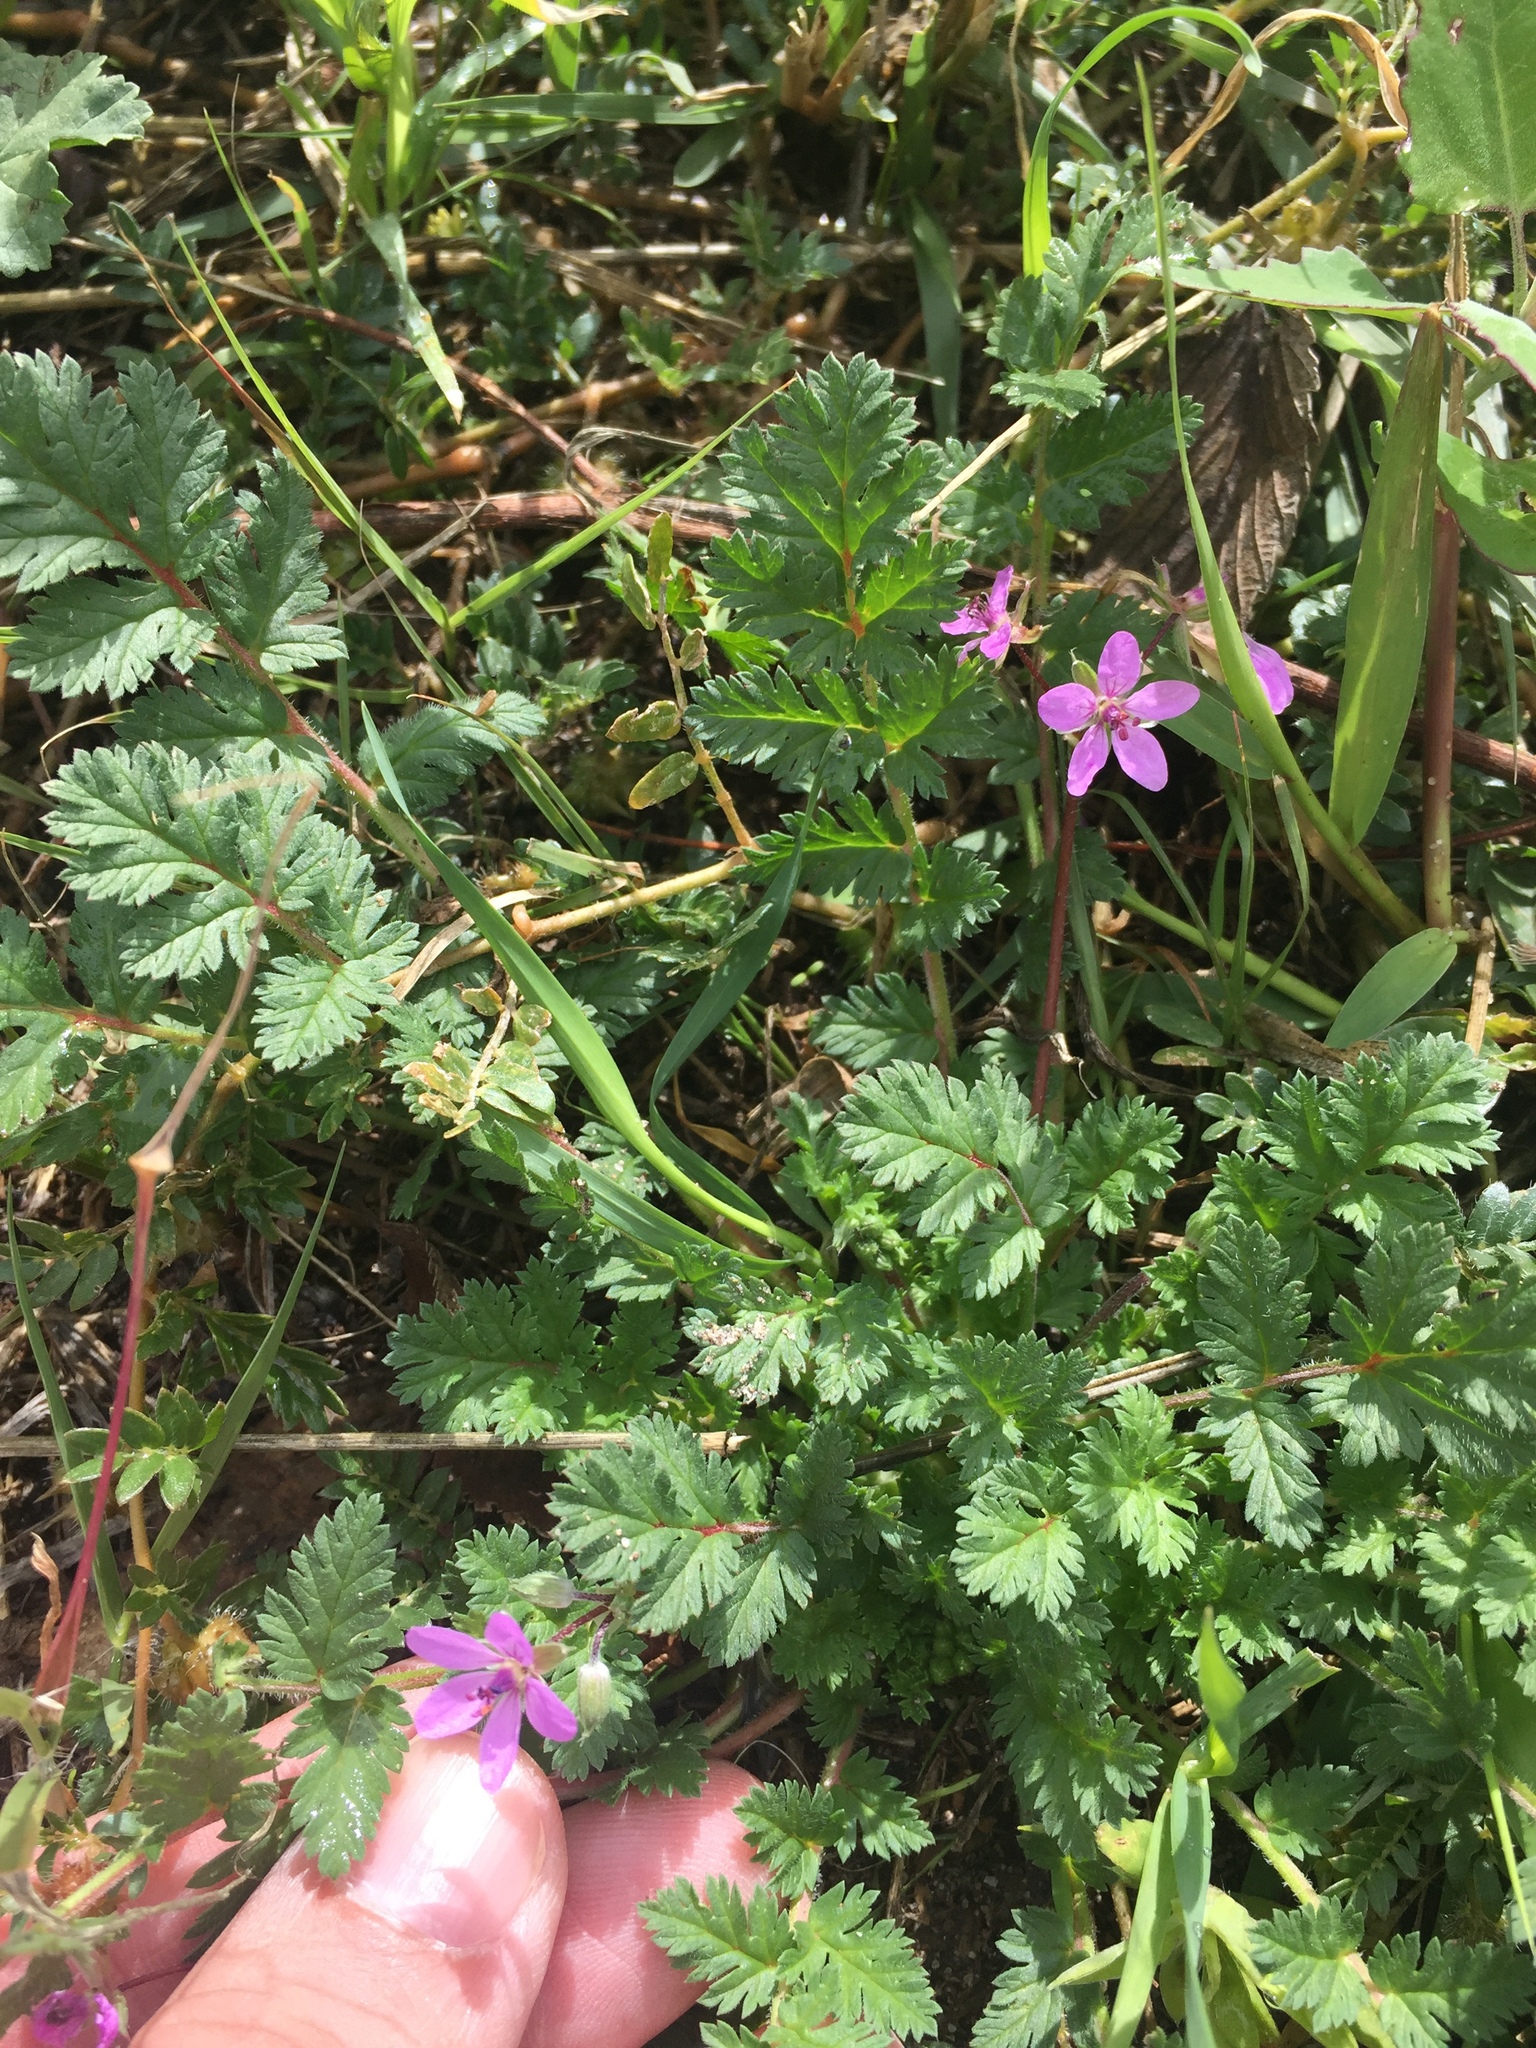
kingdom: Plantae
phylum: Tracheophyta
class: Magnoliopsida
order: Geraniales
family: Geraniaceae
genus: Erodium
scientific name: Erodium cicutarium
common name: Common stork's-bill
